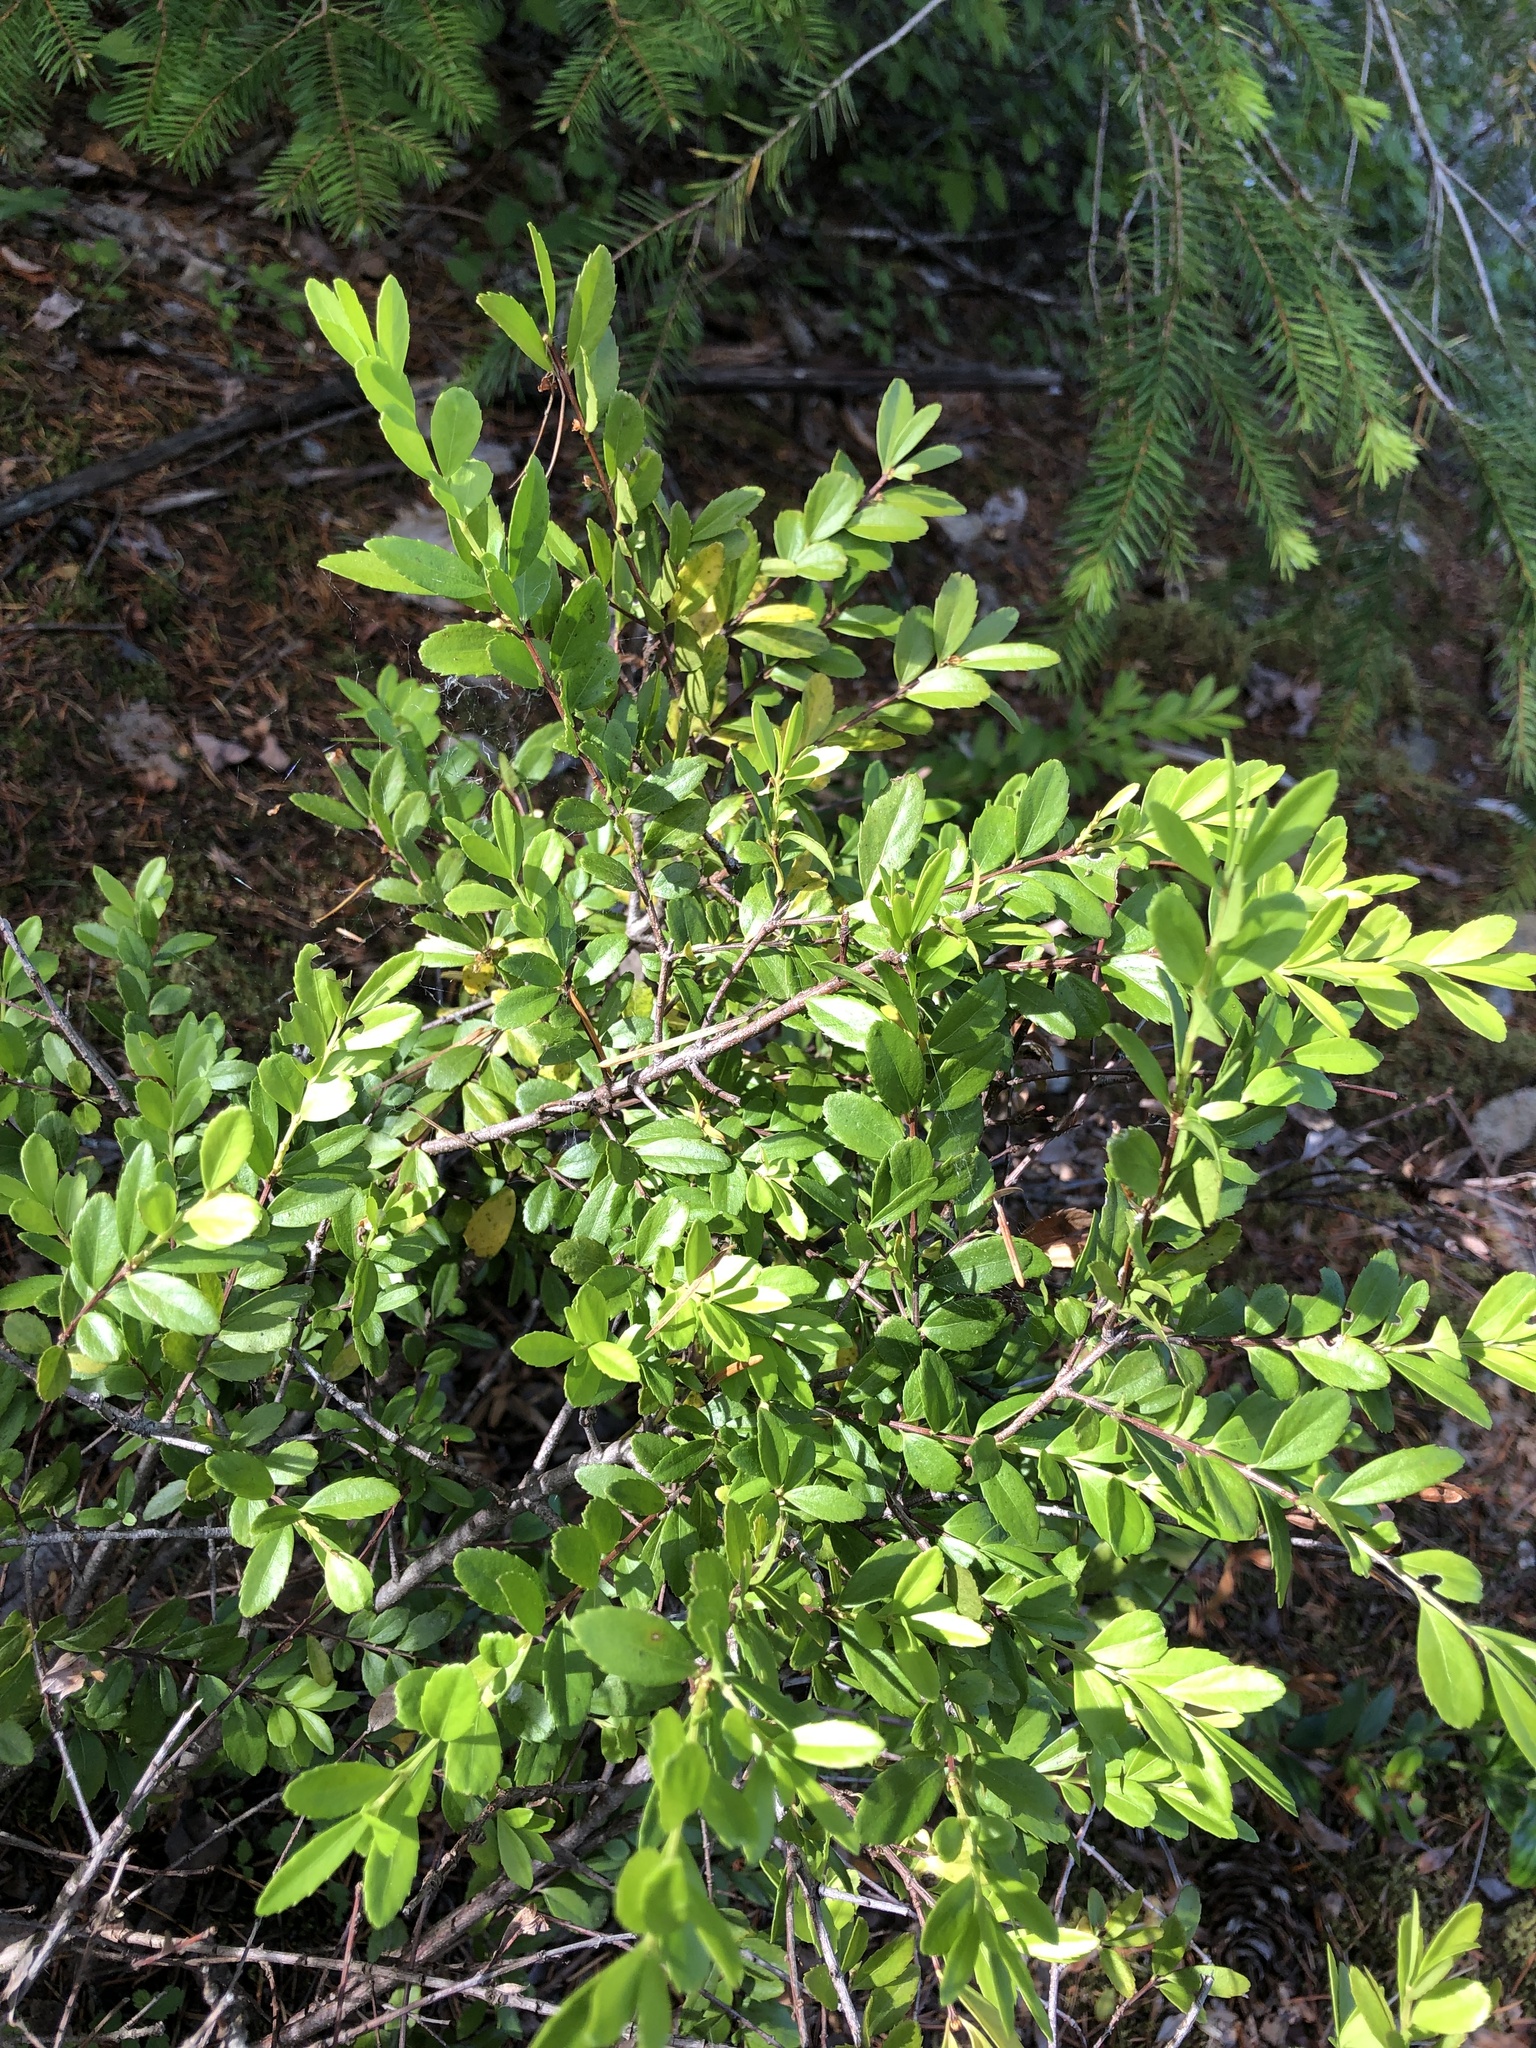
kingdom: Plantae
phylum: Tracheophyta
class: Magnoliopsida
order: Celastrales
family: Celastraceae
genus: Paxistima
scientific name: Paxistima myrsinites
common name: Mountain-lover
